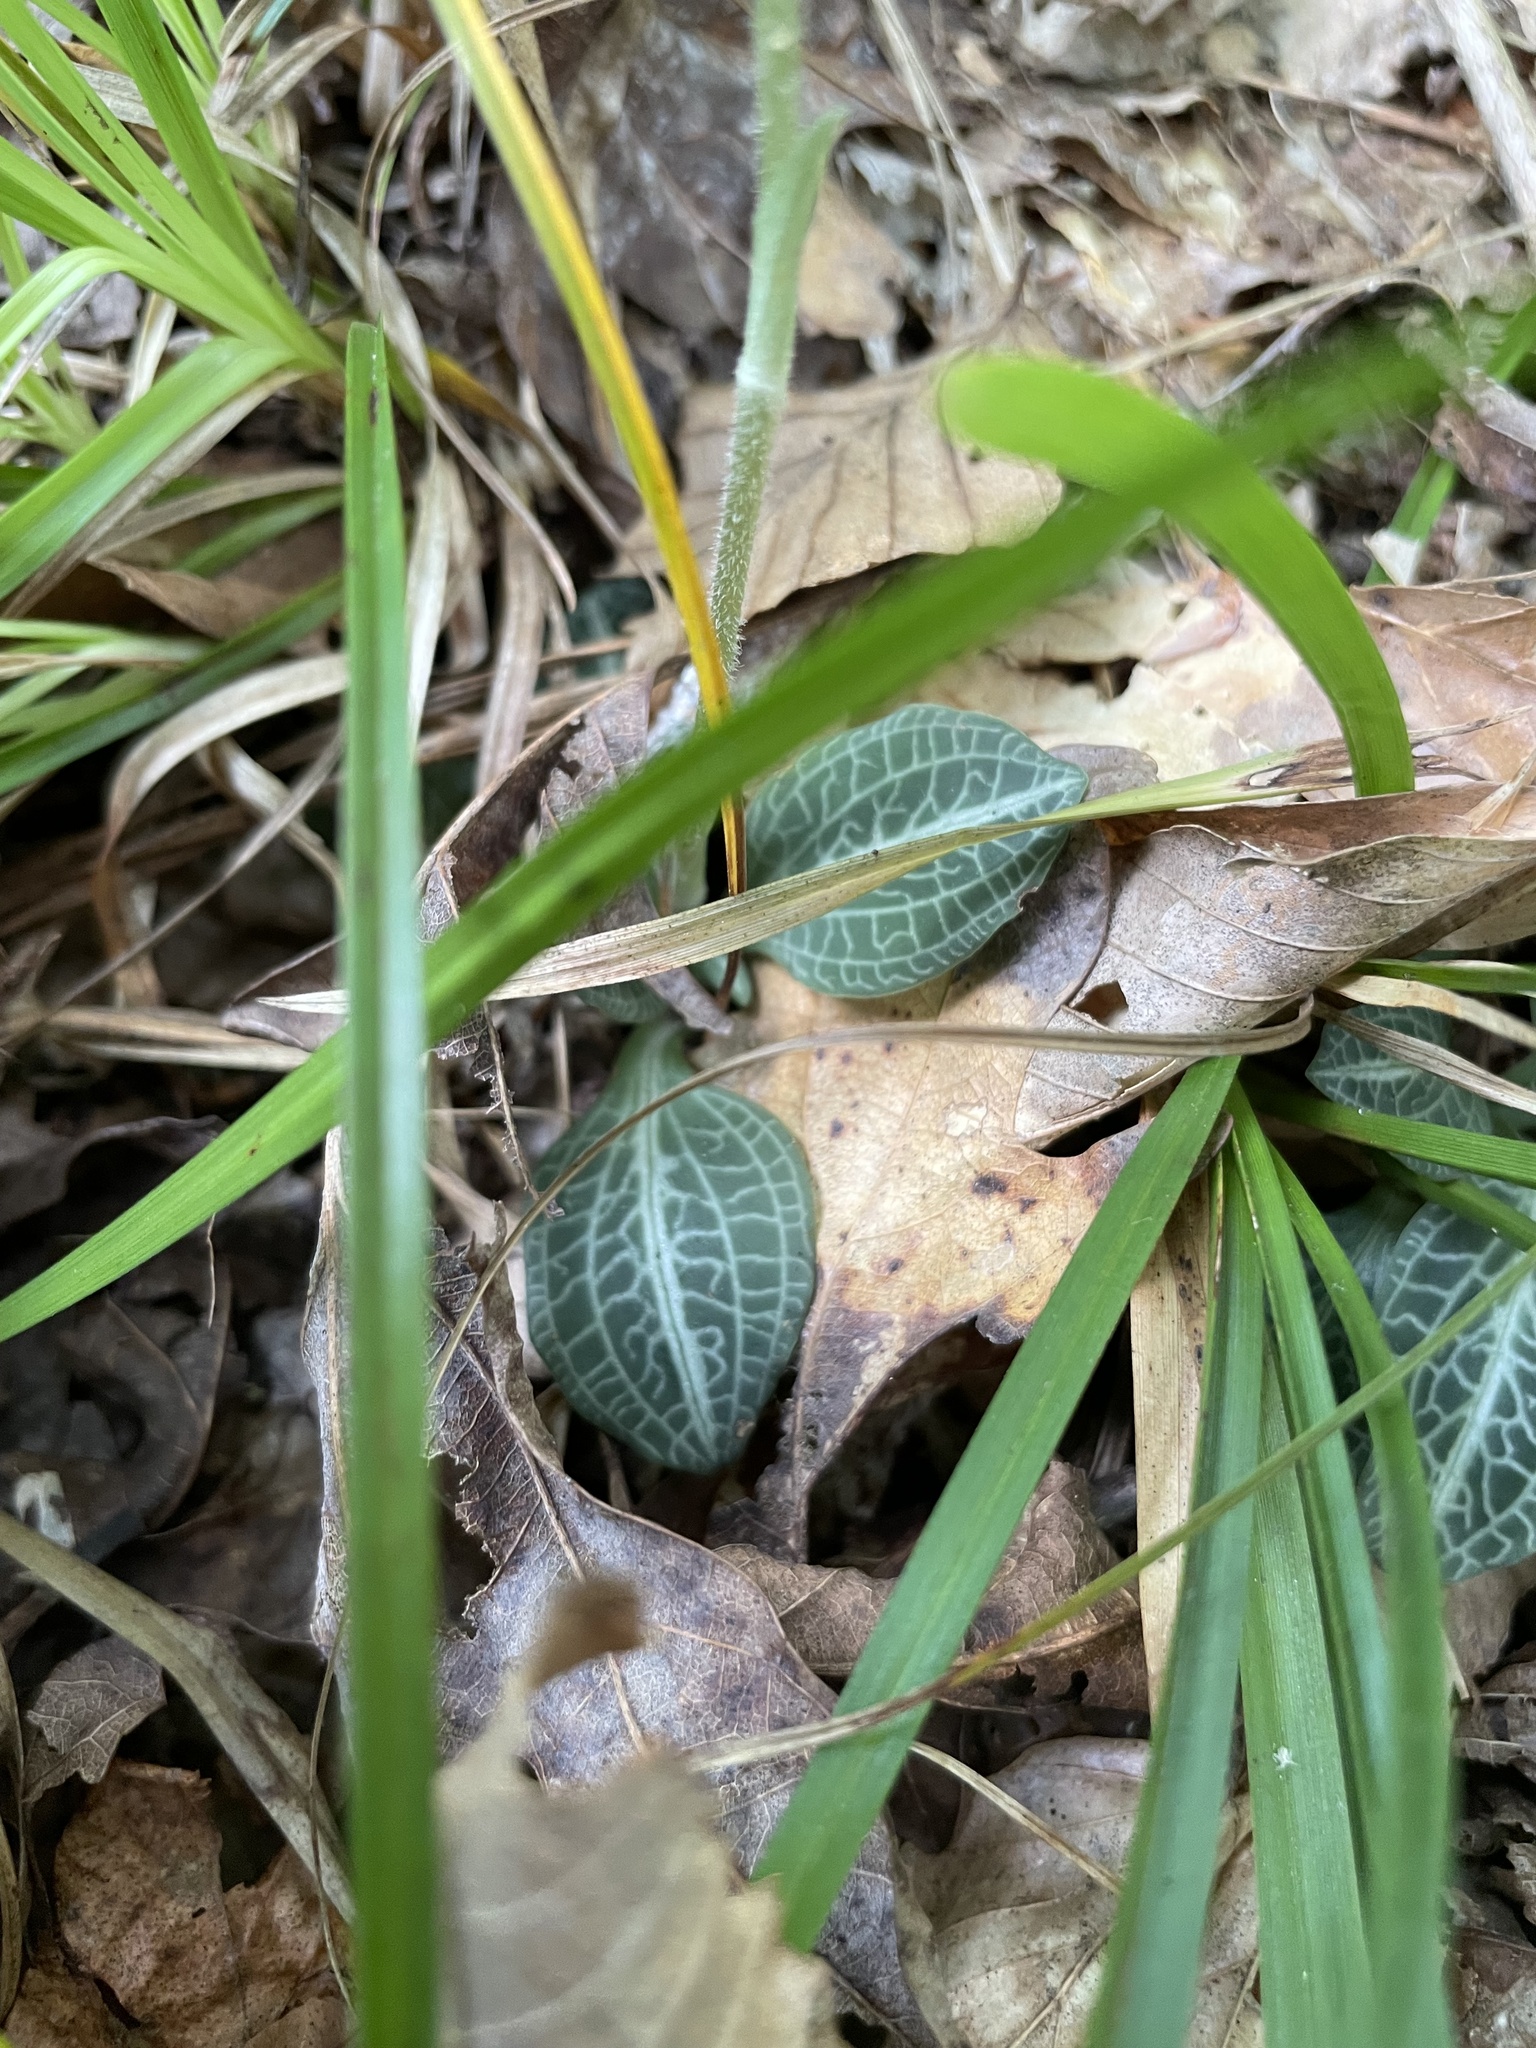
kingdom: Plantae
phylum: Tracheophyta
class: Liliopsida
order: Asparagales
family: Orchidaceae
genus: Goodyera
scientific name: Goodyera pubescens
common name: Downy rattlesnake-plantain
